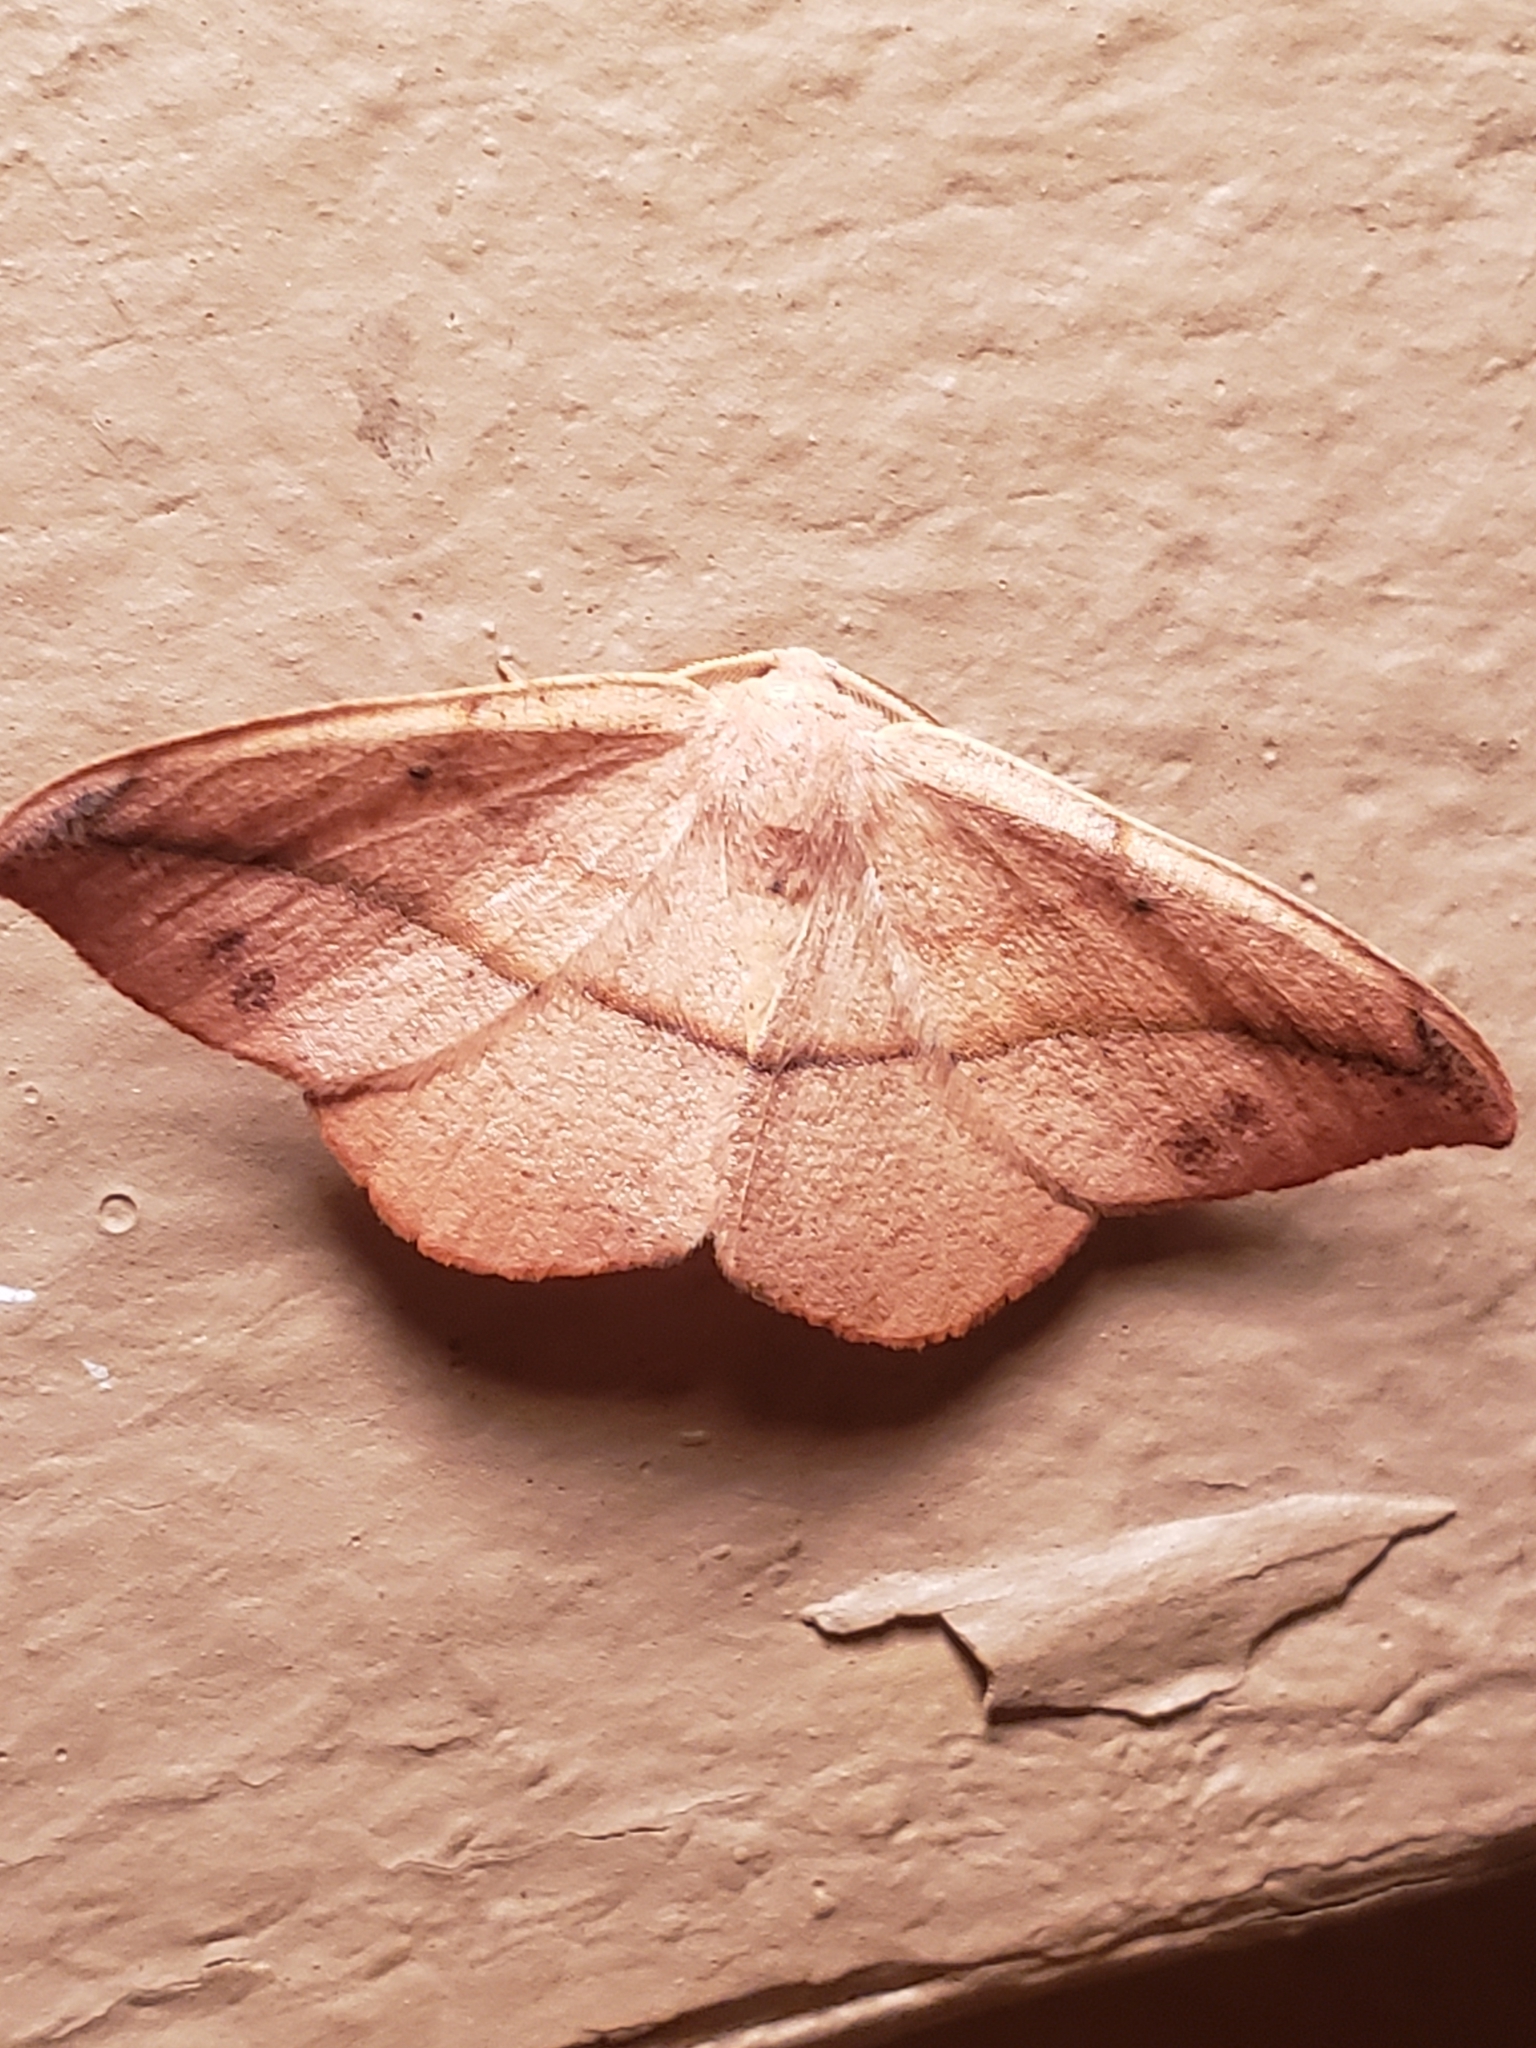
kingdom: Animalia
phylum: Arthropoda
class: Insecta
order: Lepidoptera
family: Geometridae
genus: Patalene
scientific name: Patalene olyzonaria
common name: Juniper geometer moth
